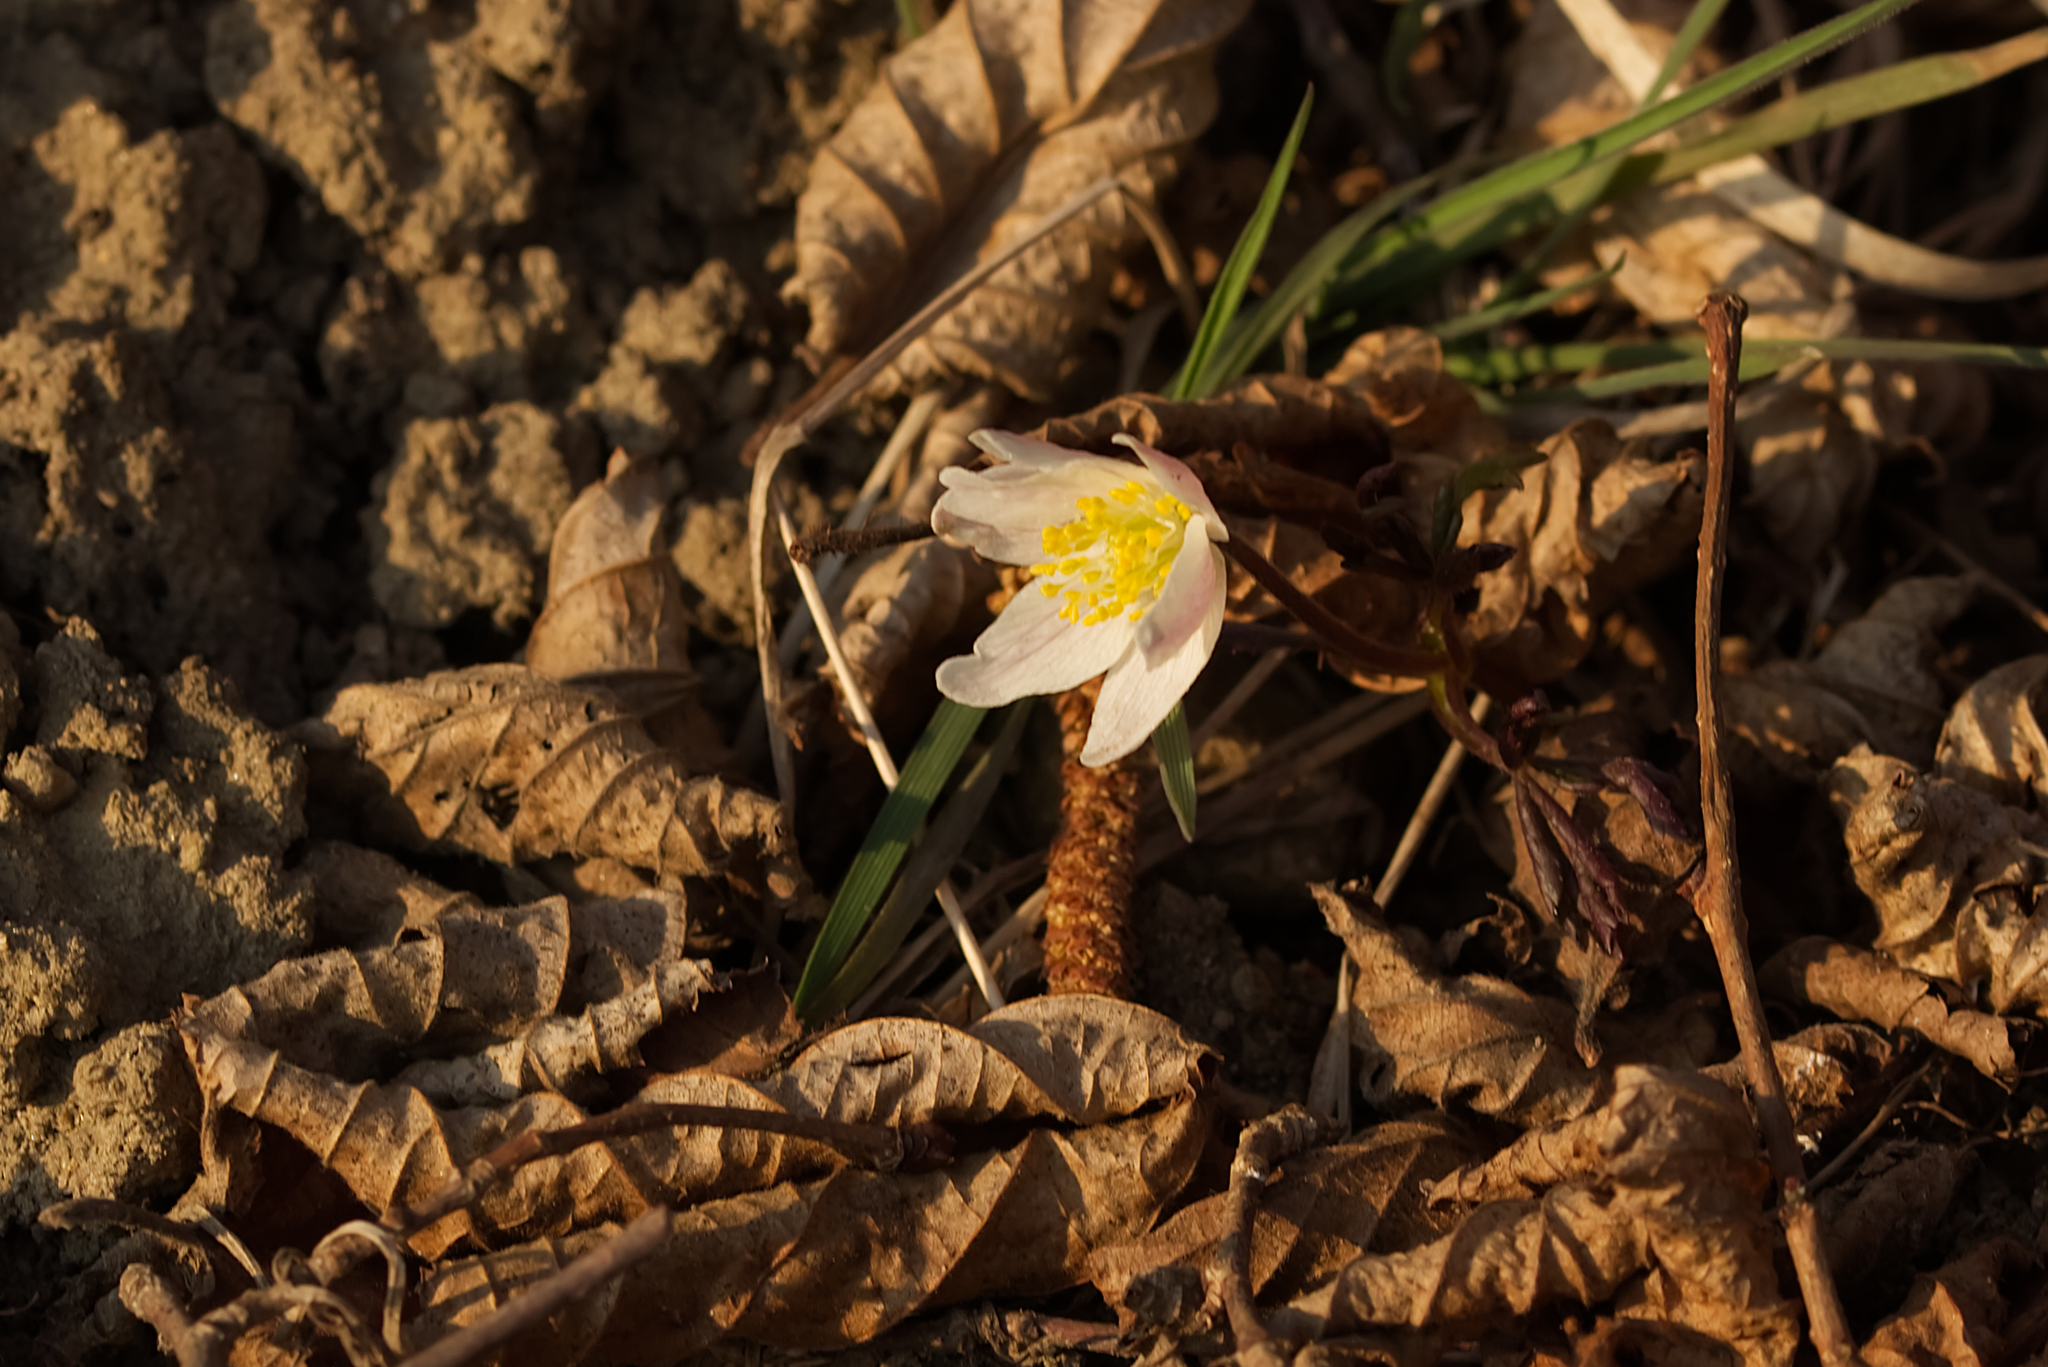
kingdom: Plantae
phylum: Tracheophyta
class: Magnoliopsida
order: Ranunculales
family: Ranunculaceae
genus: Anemone
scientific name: Anemone nemorosa
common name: Wood anemone
